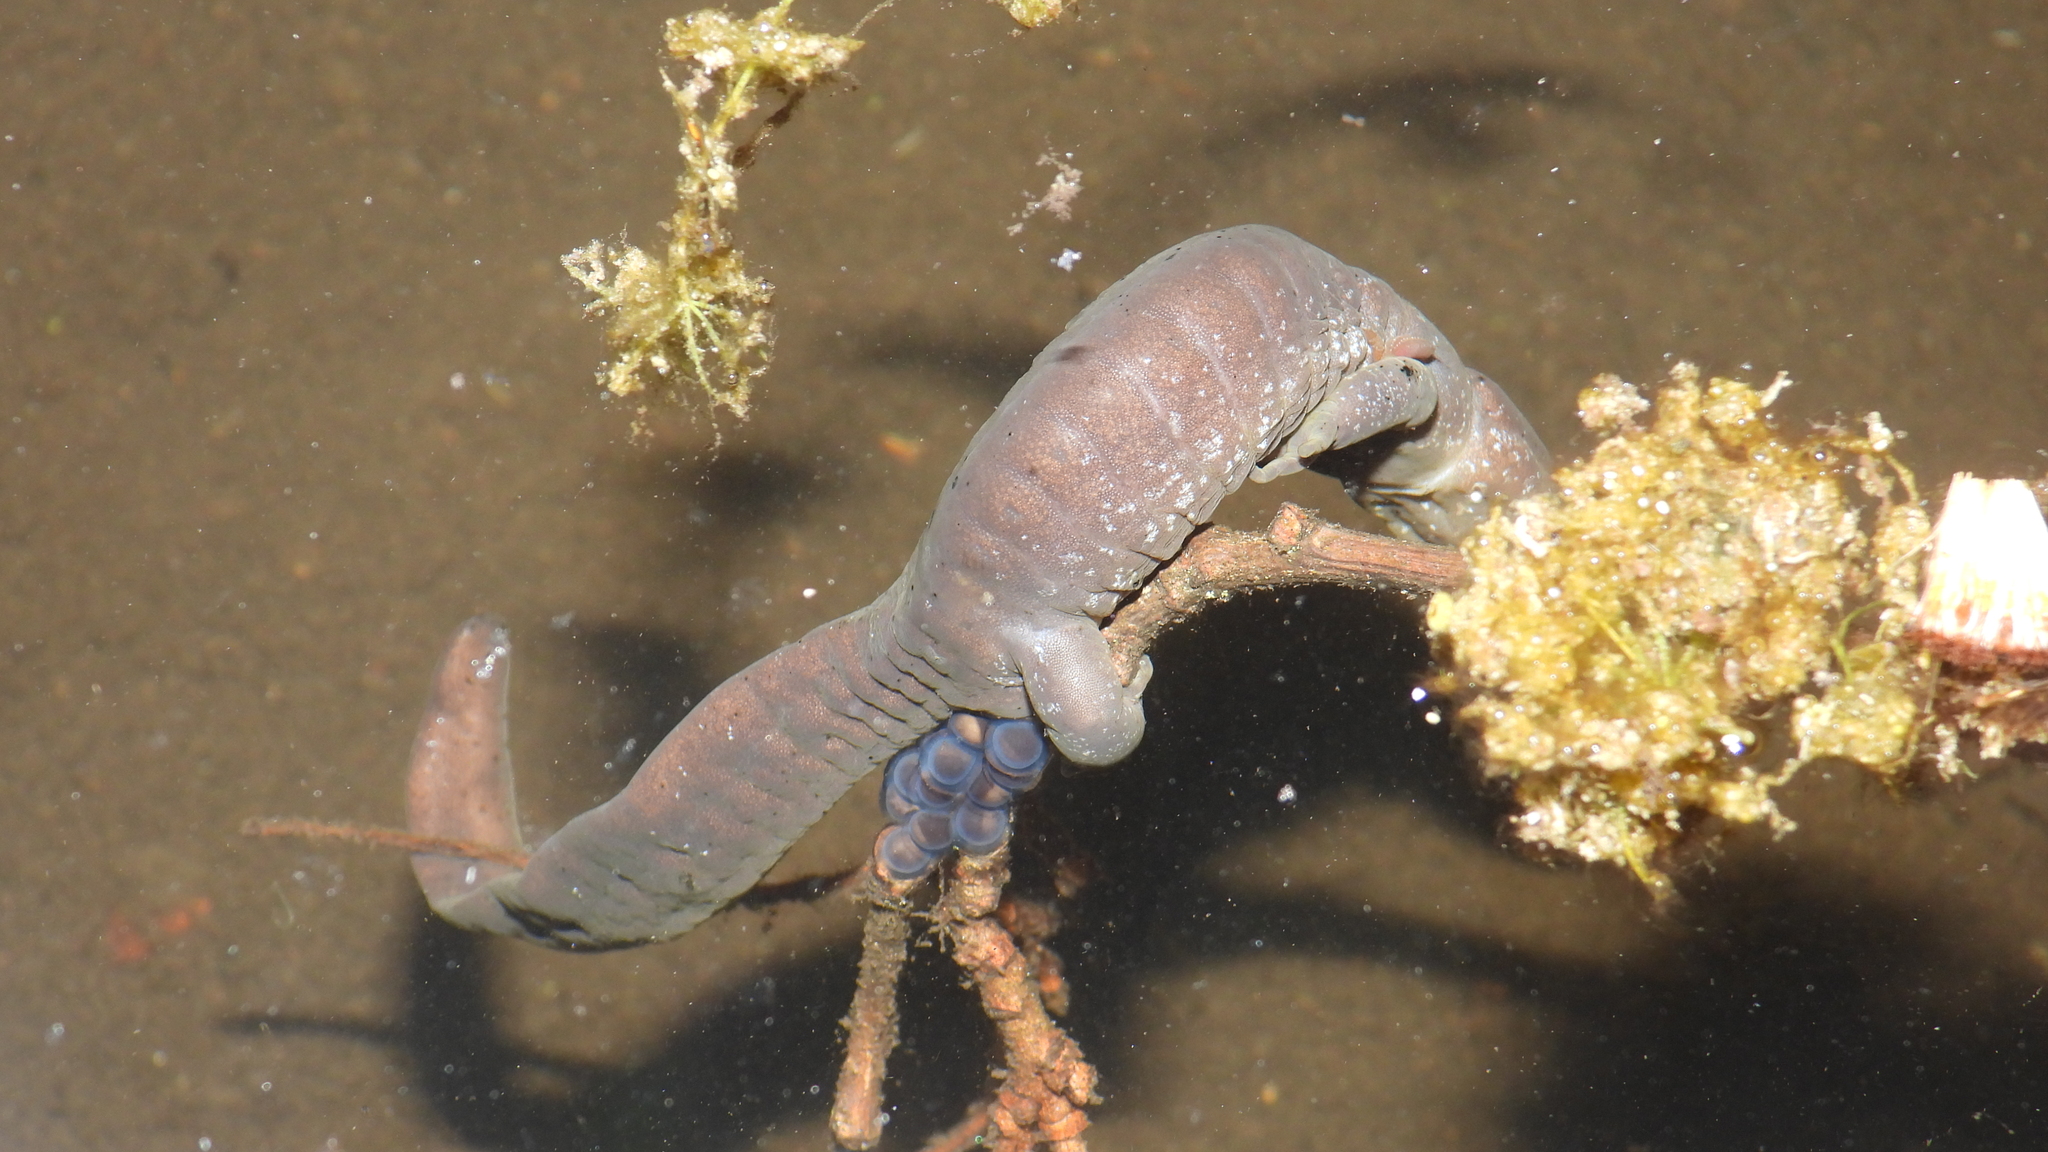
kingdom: Animalia
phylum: Chordata
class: Amphibia
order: Caudata
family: Ambystomatidae
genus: Ambystoma
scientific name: Ambystoma jeffersonianum
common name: Jefferson salamander
